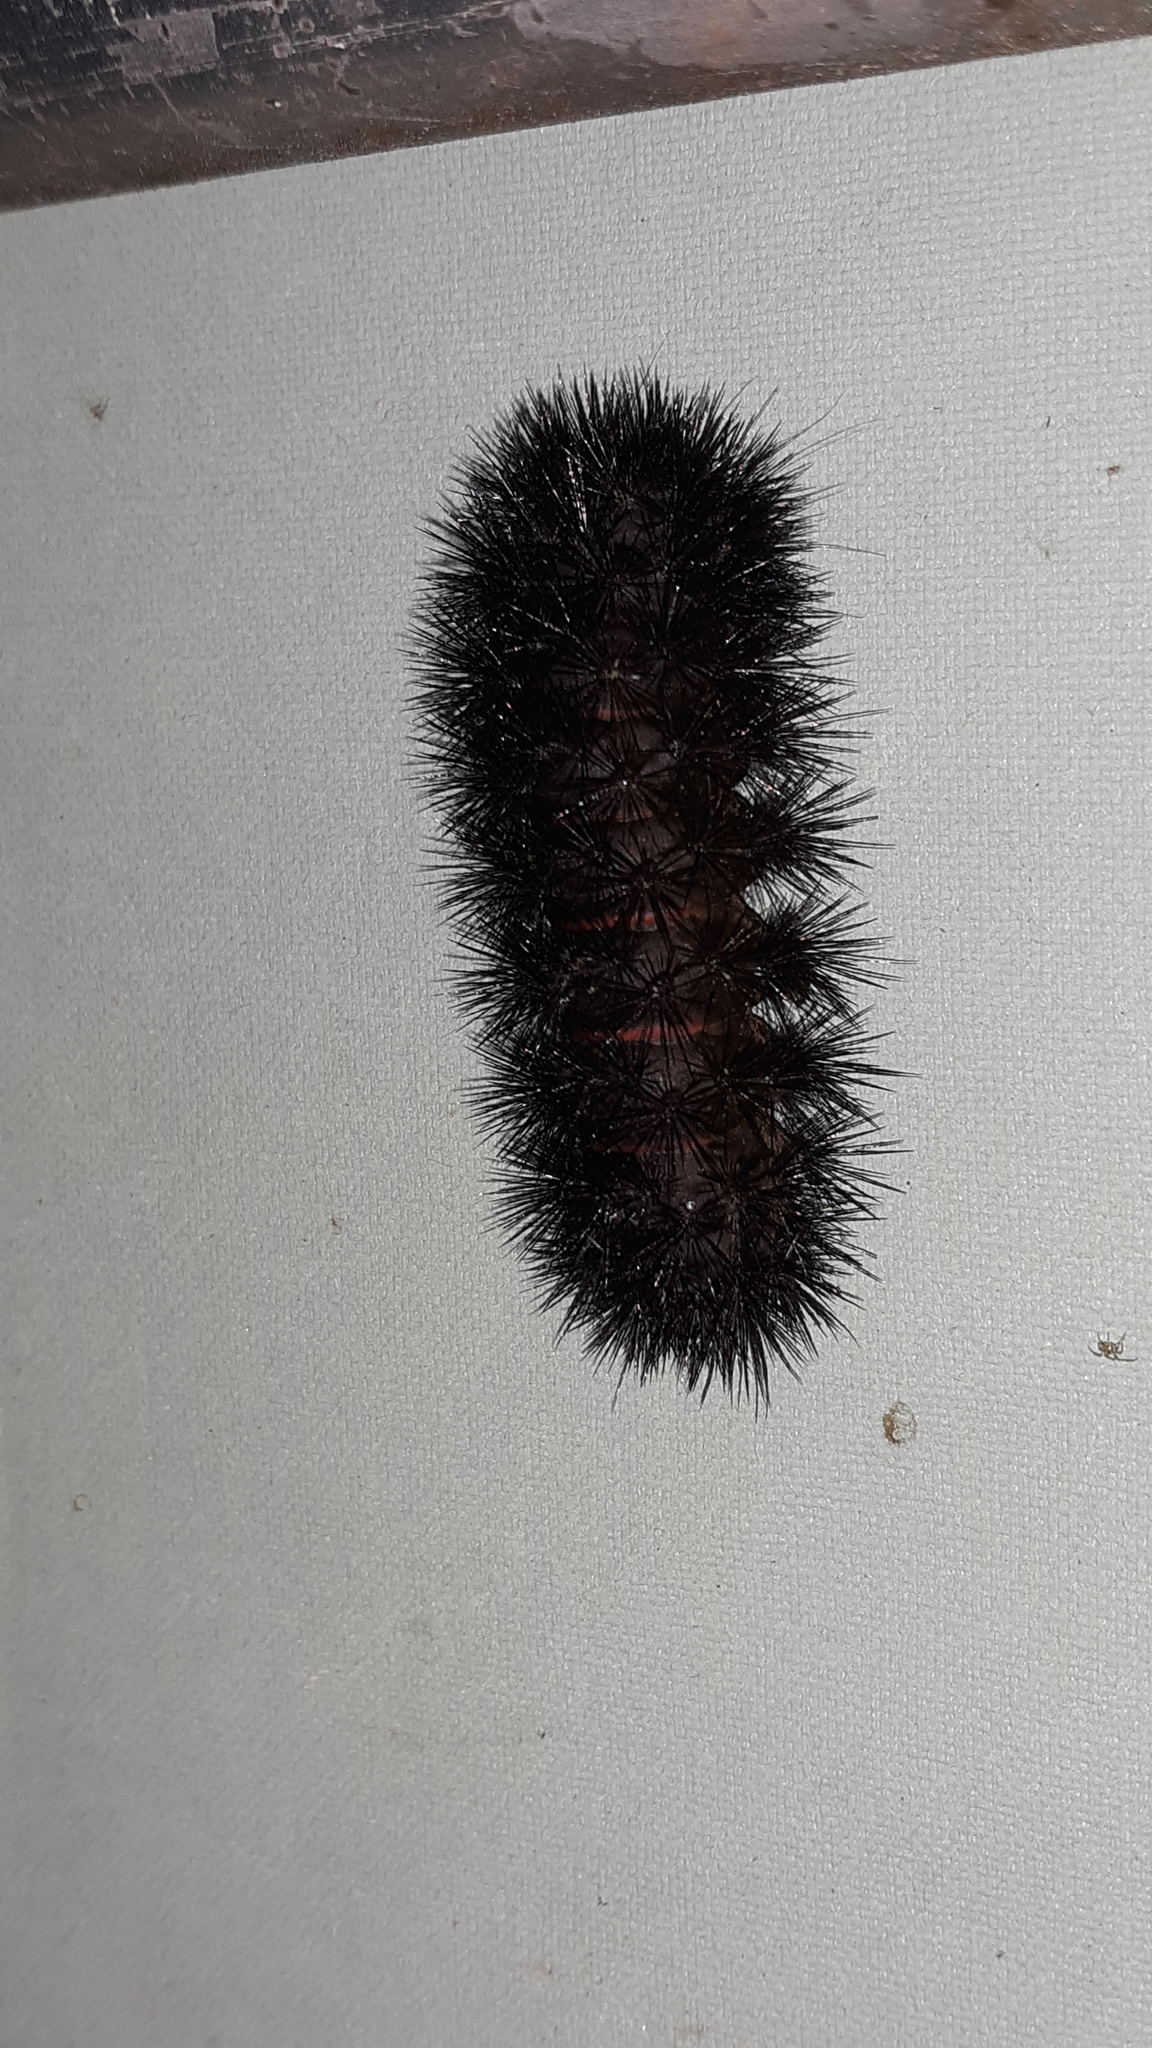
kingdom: Animalia
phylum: Arthropoda
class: Insecta
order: Lepidoptera
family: Erebidae
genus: Hypercompe
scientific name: Hypercompe scribonia
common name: Giant leopard moth
